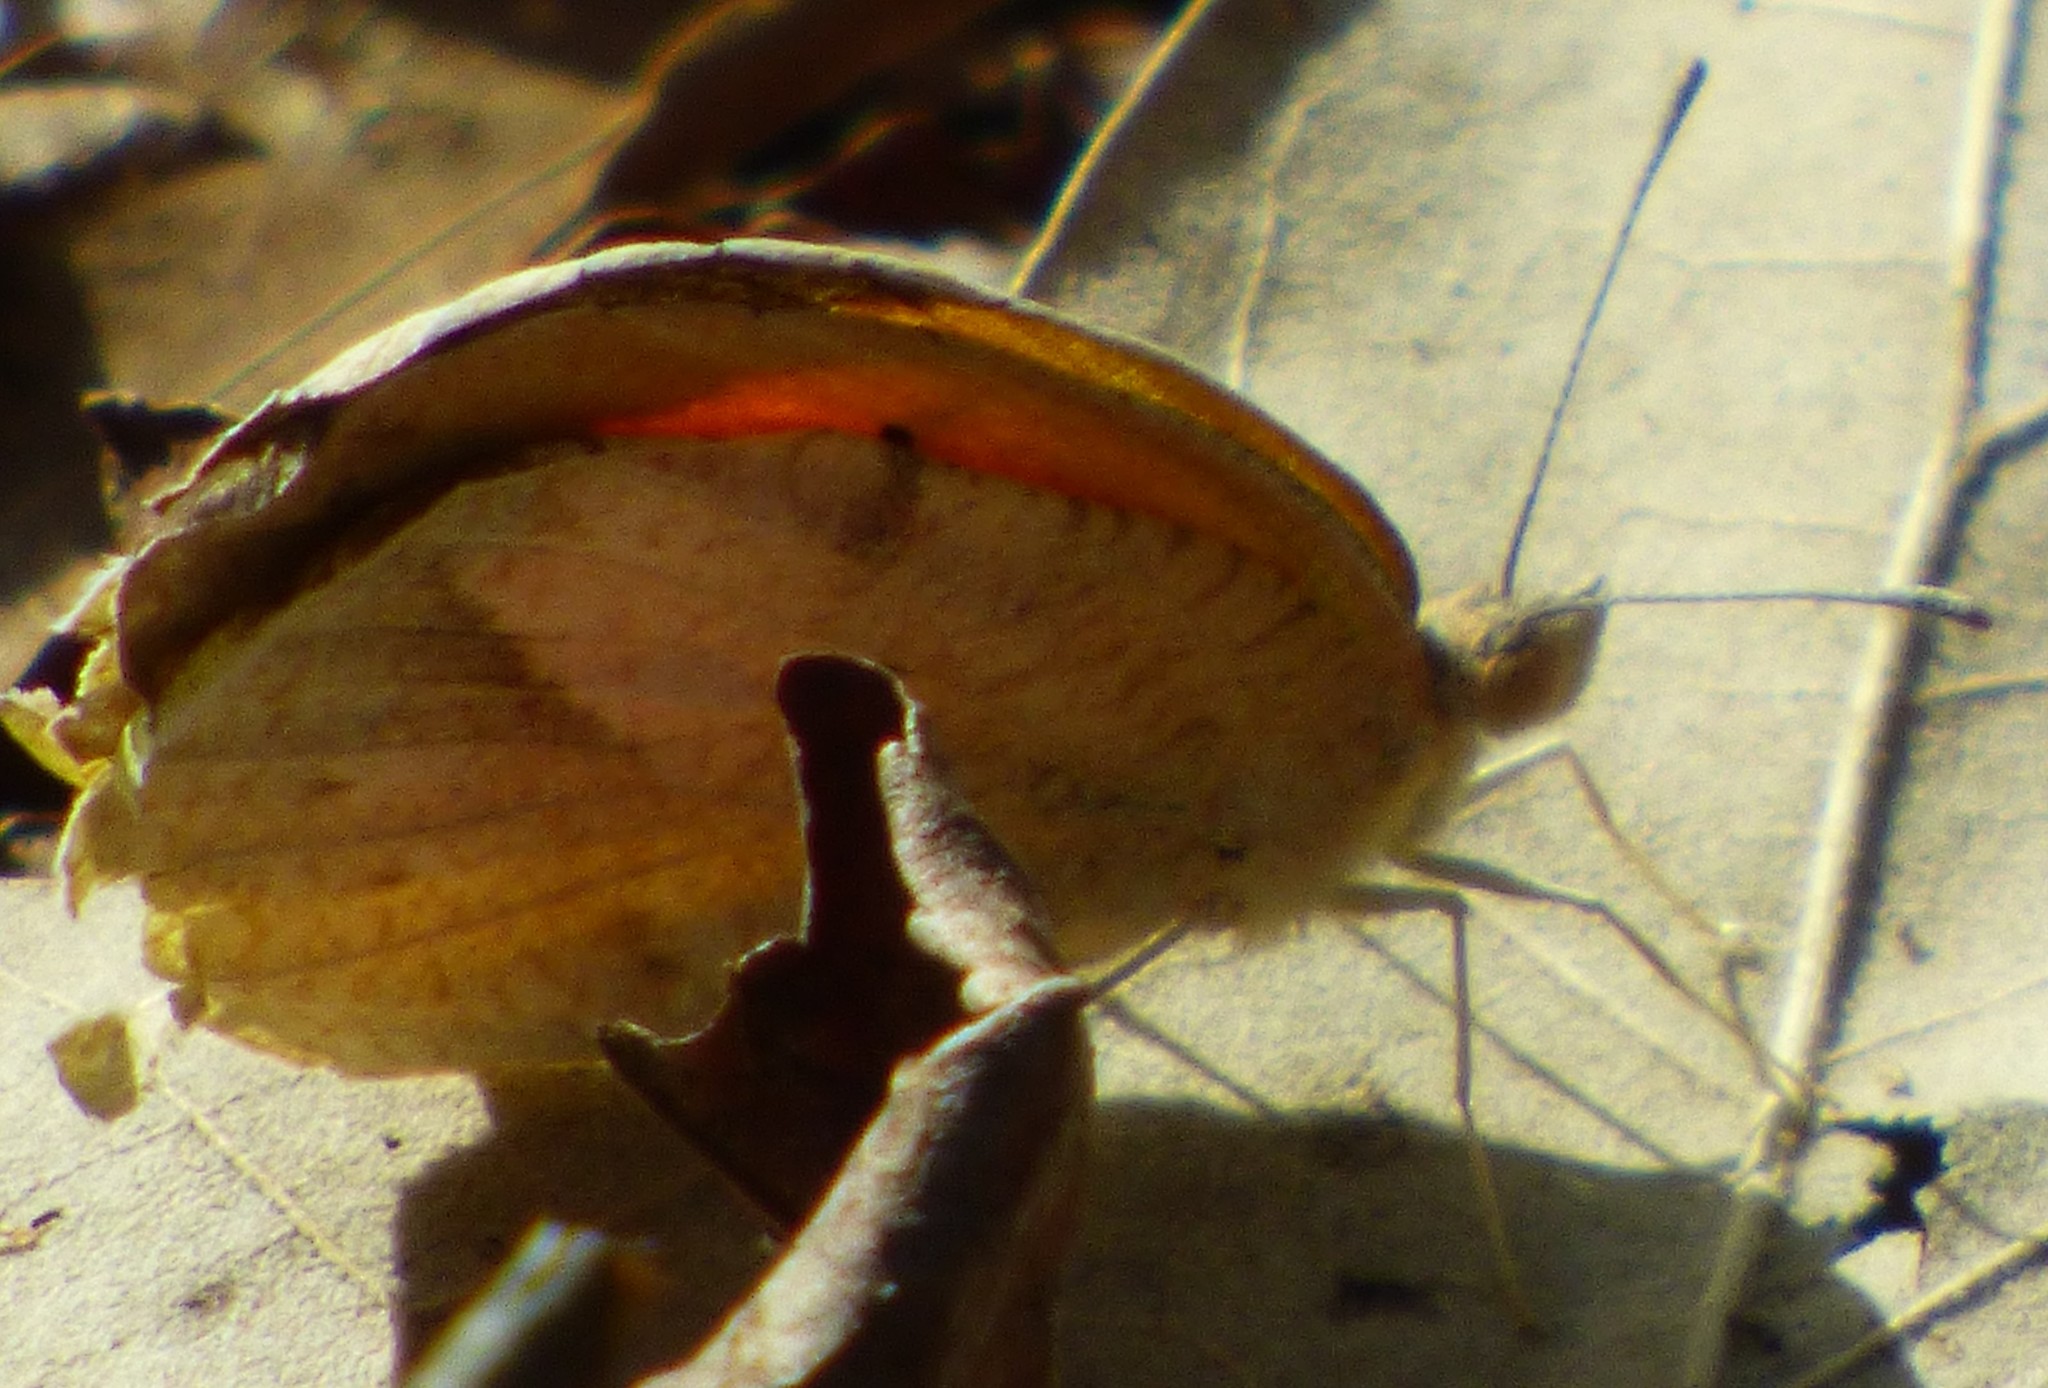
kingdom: Animalia
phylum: Arthropoda
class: Insecta
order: Lepidoptera
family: Pieridae
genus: Abaeis
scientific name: Abaeis nicippe
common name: Sleepy orange
